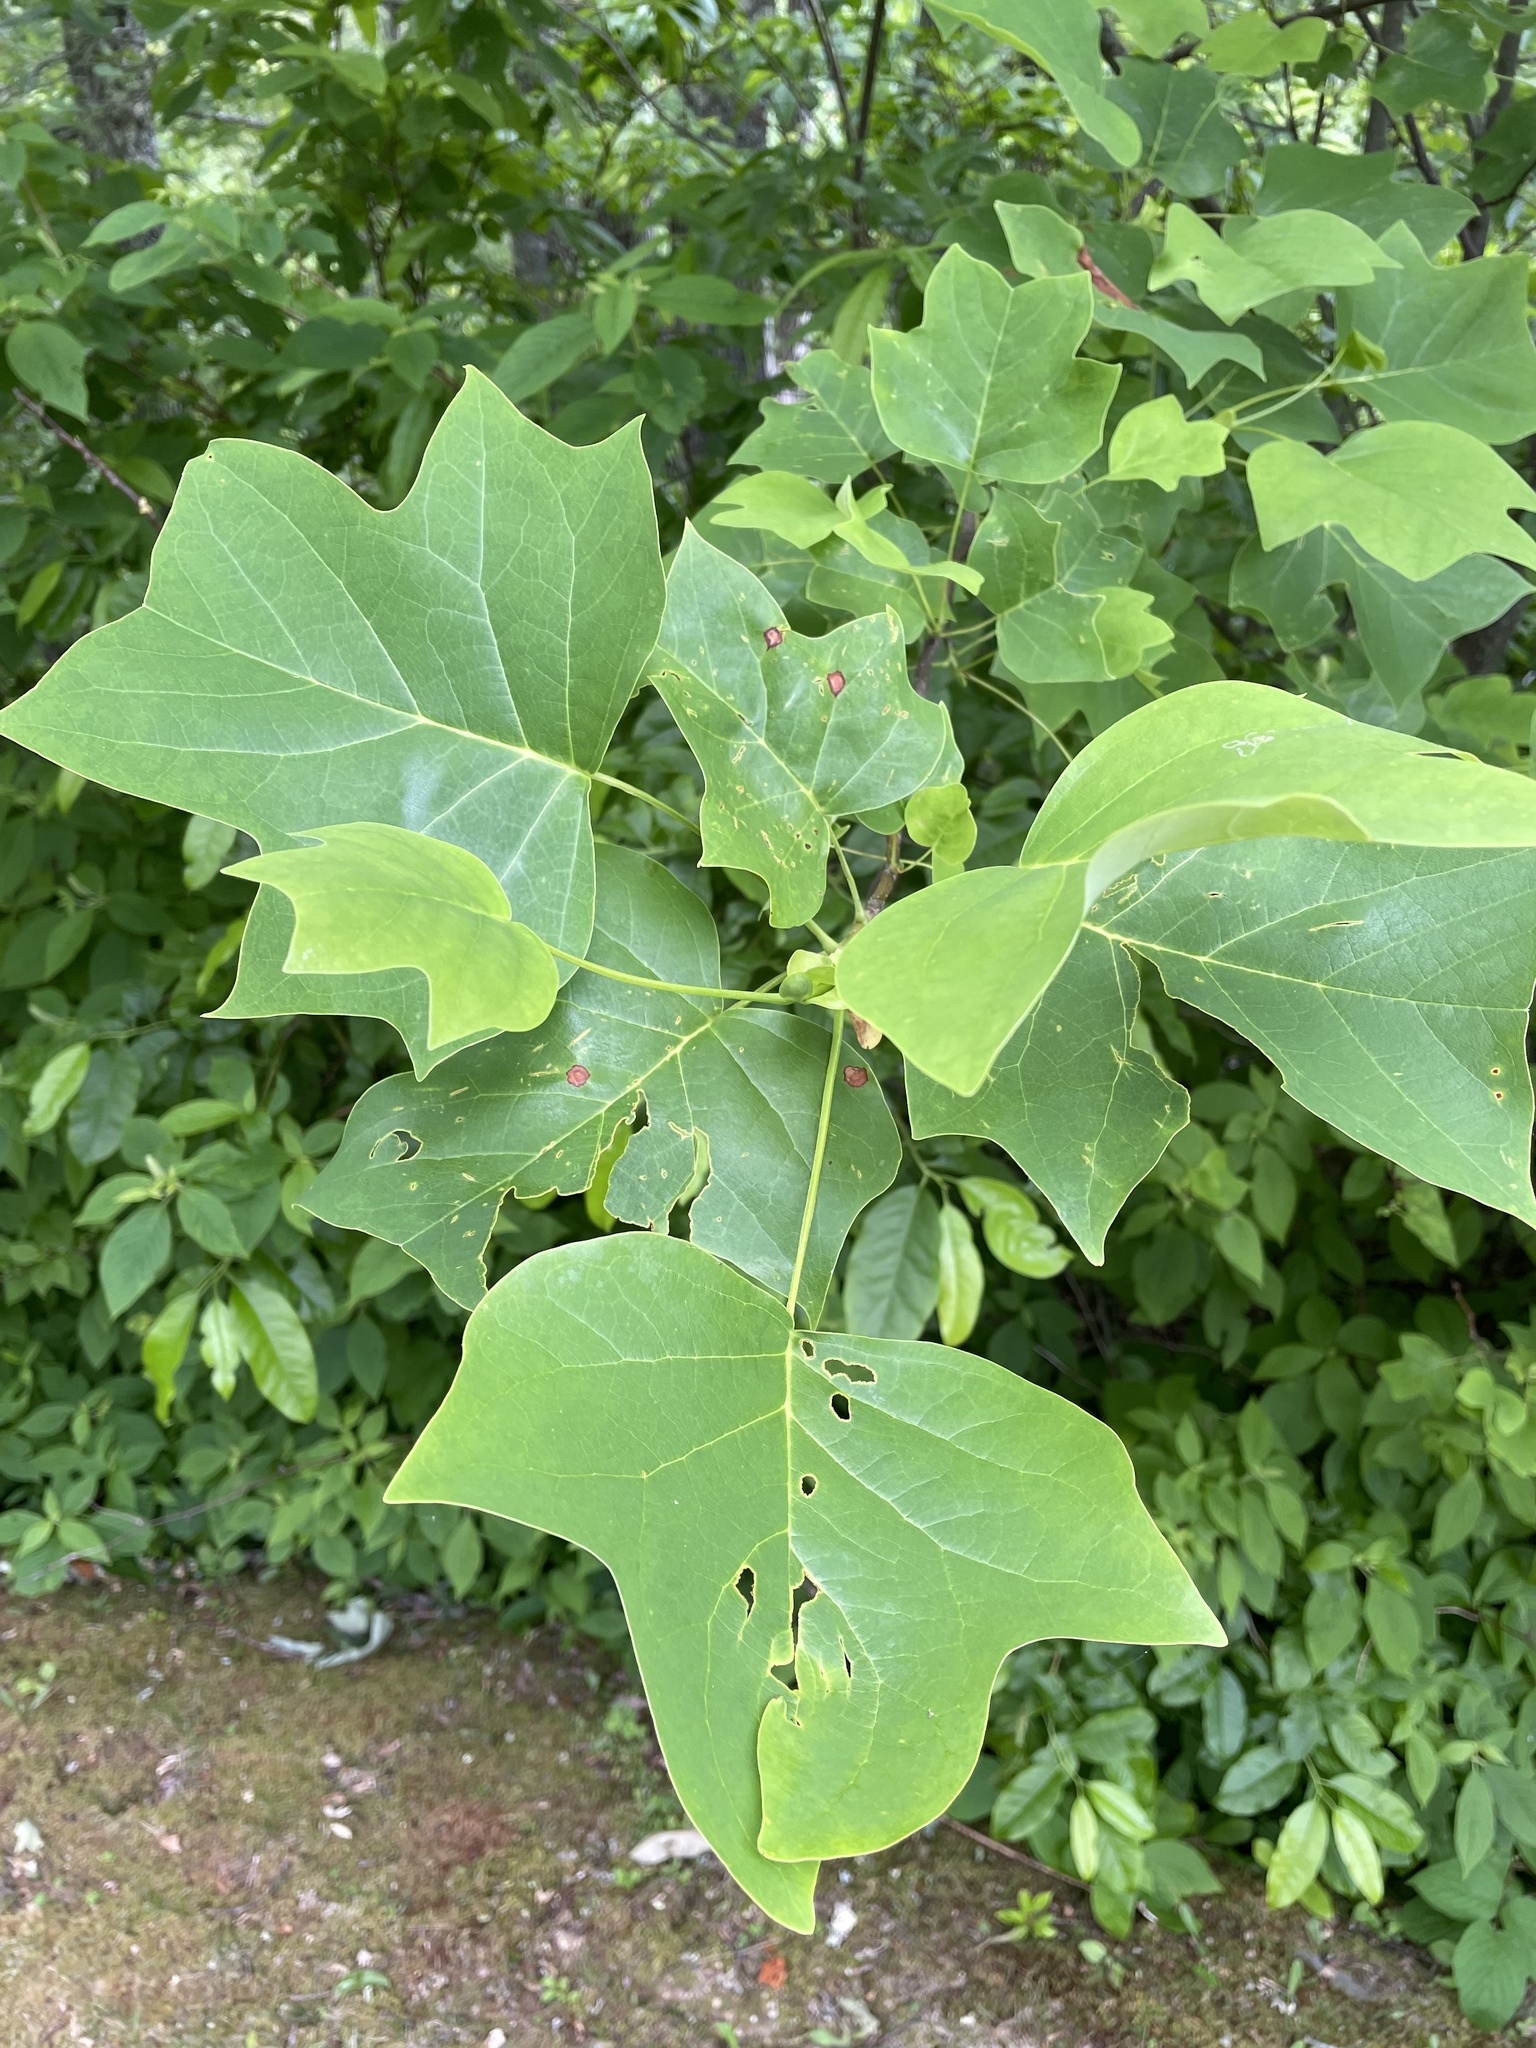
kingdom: Plantae
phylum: Tracheophyta
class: Magnoliopsida
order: Magnoliales
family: Magnoliaceae
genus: Liriodendron
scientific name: Liriodendron tulipifera
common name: Tulip tree
